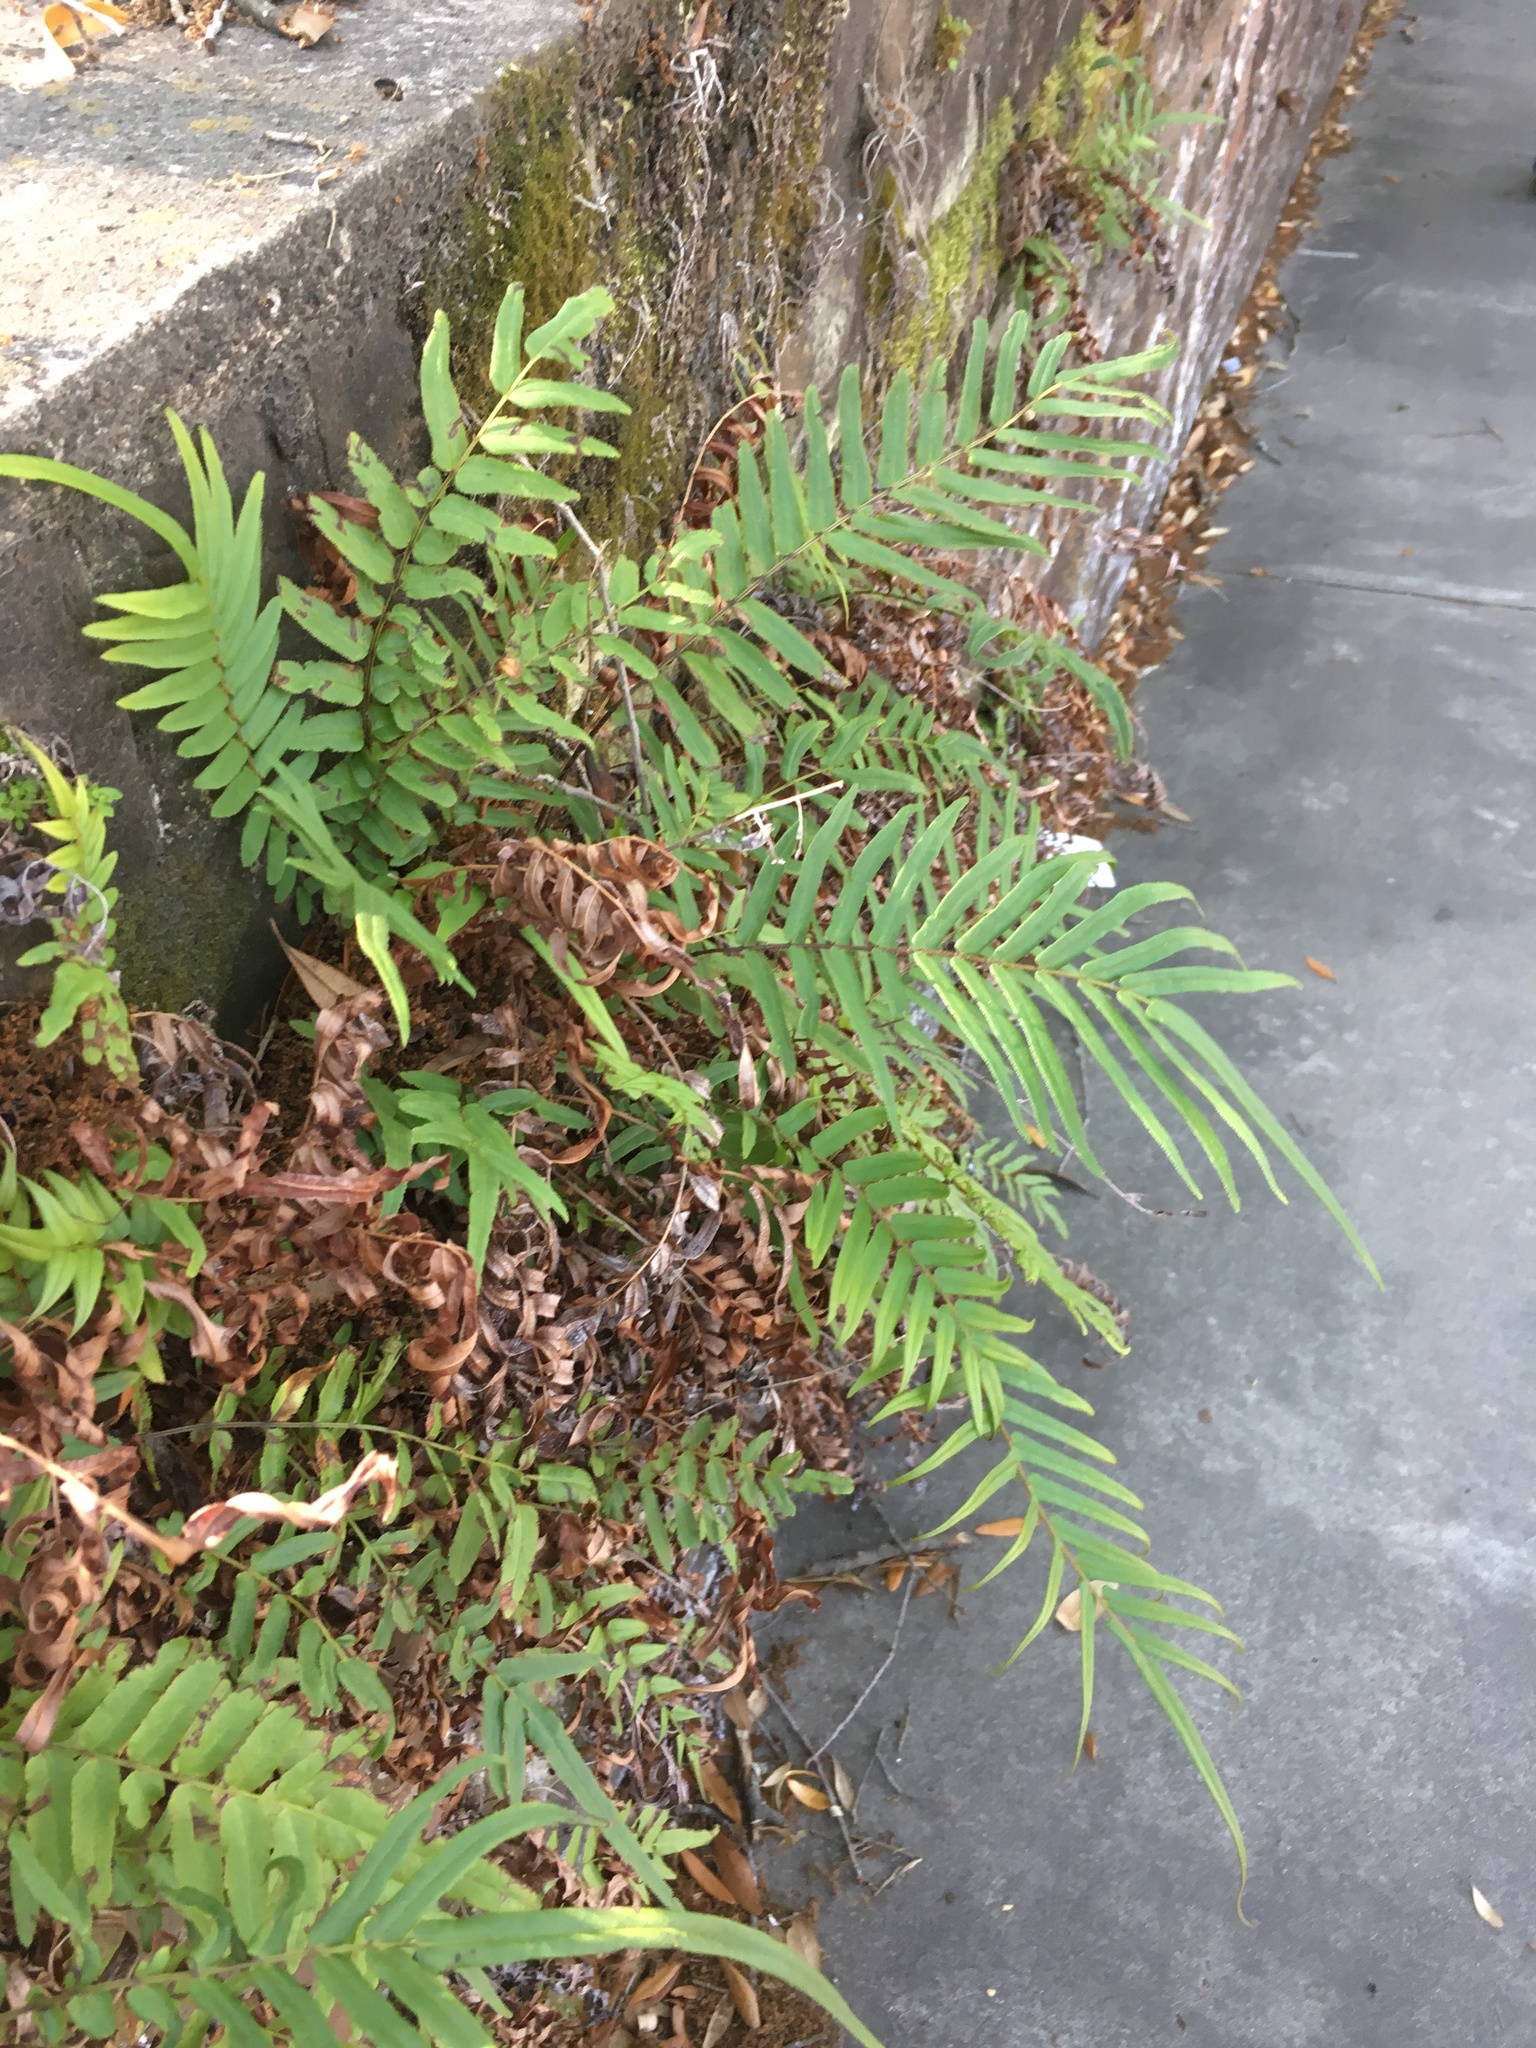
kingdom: Plantae
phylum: Tracheophyta
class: Polypodiopsida
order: Polypodiales
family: Pteridaceae
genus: Pteris
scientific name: Pteris vittata
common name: Ladder brake
